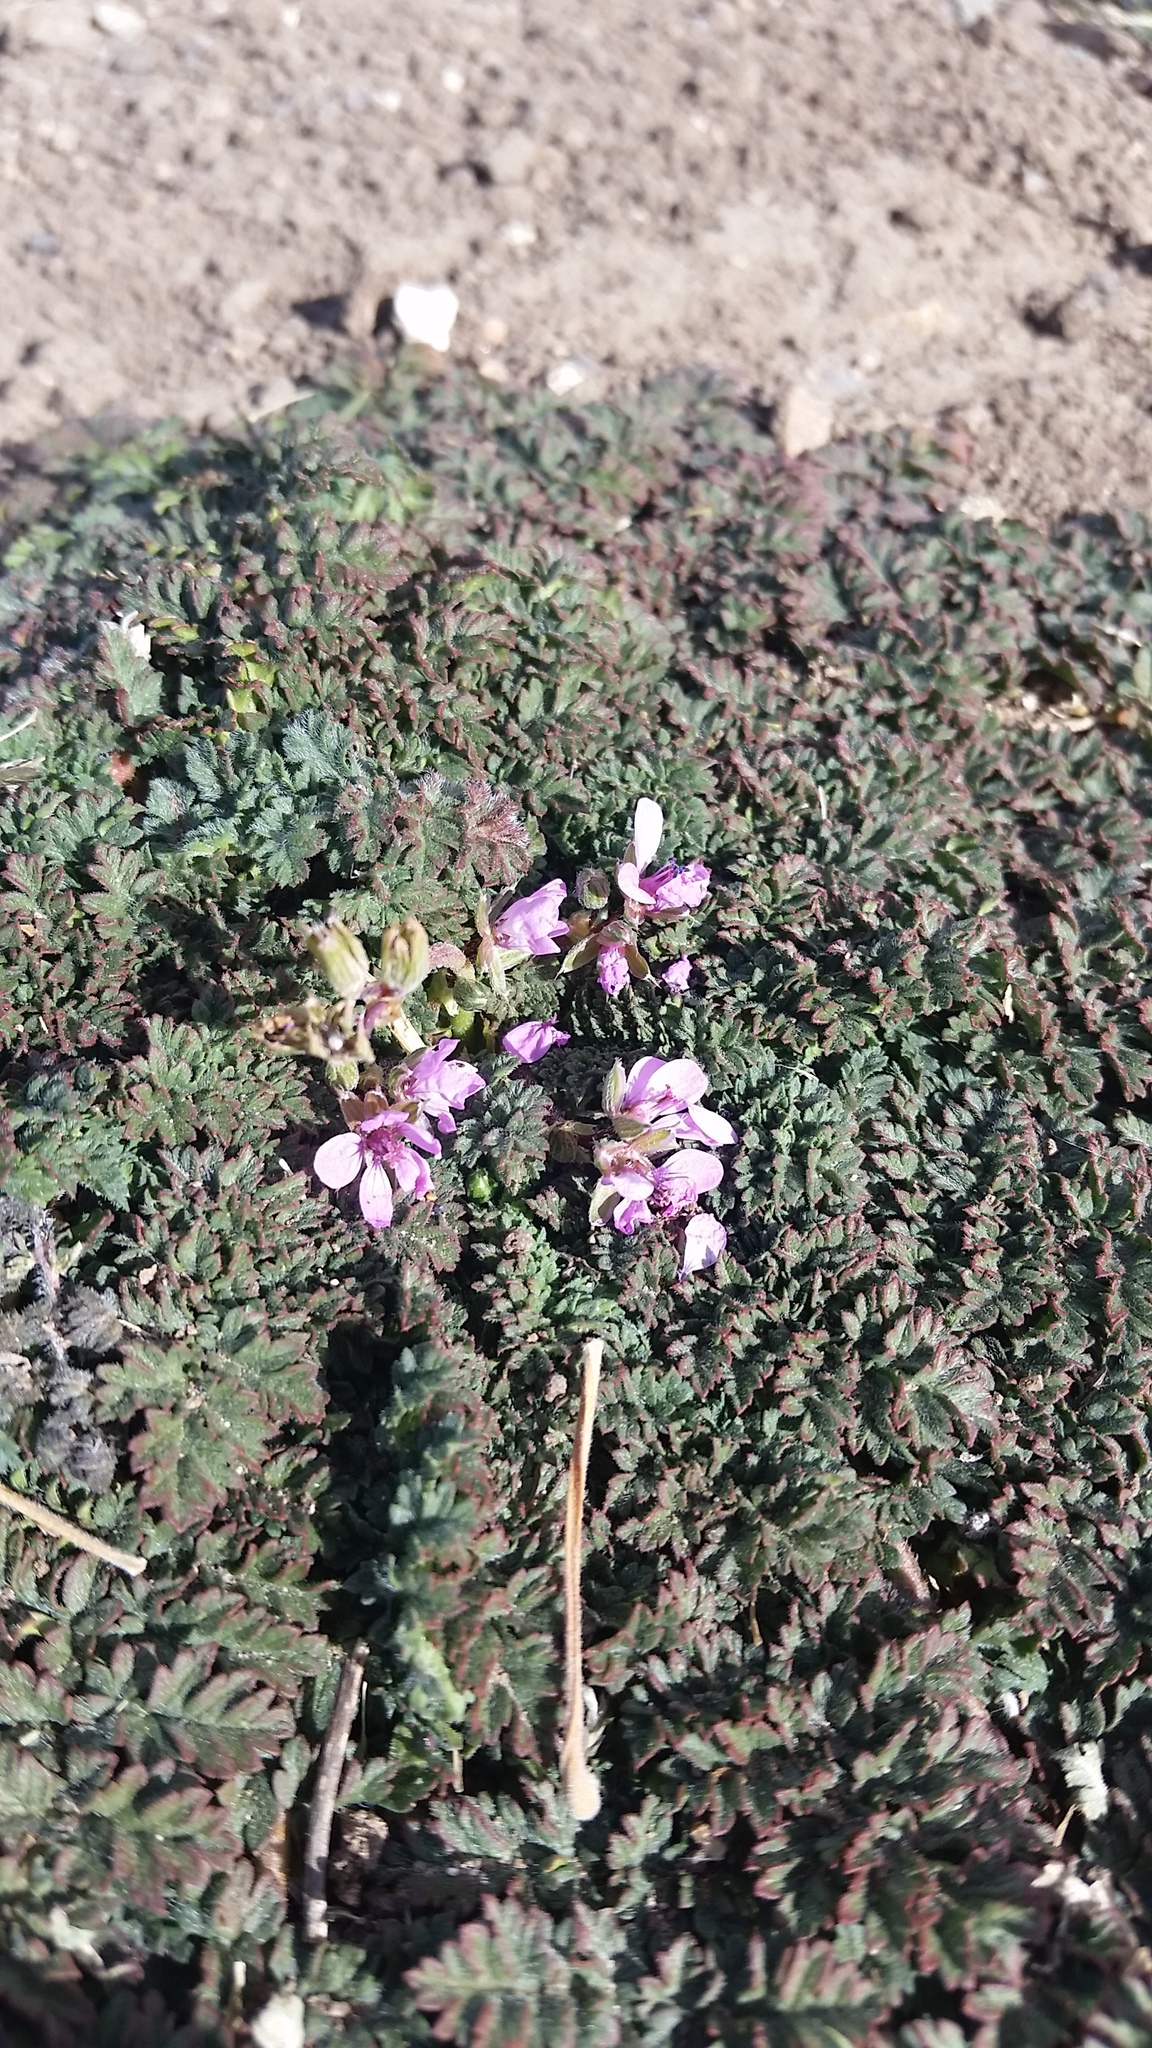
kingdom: Plantae
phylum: Tracheophyta
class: Magnoliopsida
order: Geraniales
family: Geraniaceae
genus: Erodium
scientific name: Erodium cicutarium
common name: Common stork's-bill
